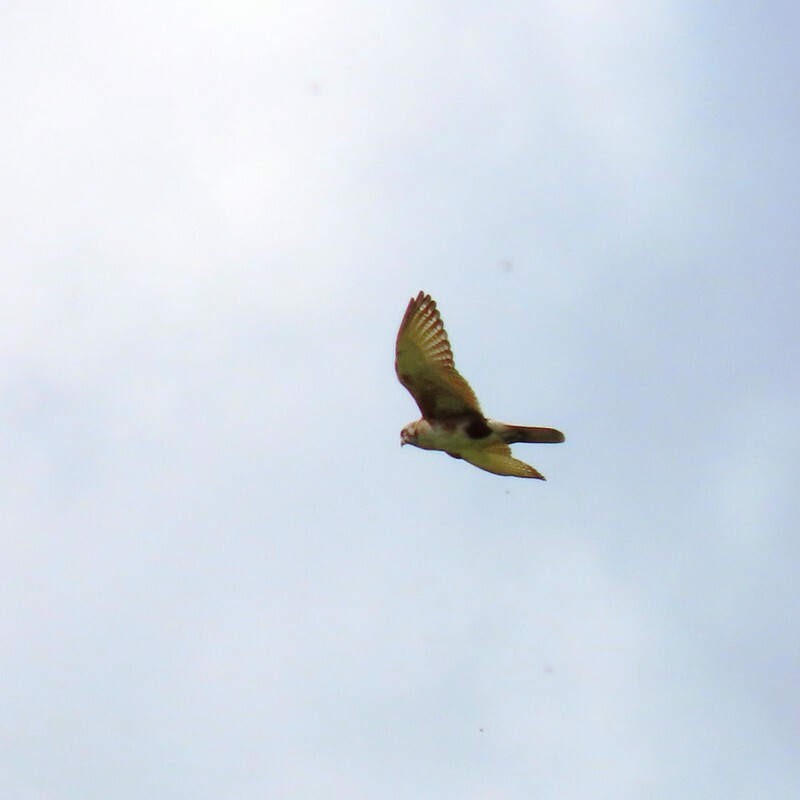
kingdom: Animalia
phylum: Chordata
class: Aves
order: Falconiformes
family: Falconidae
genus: Falco
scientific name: Falco berigora
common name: Brown falcon
